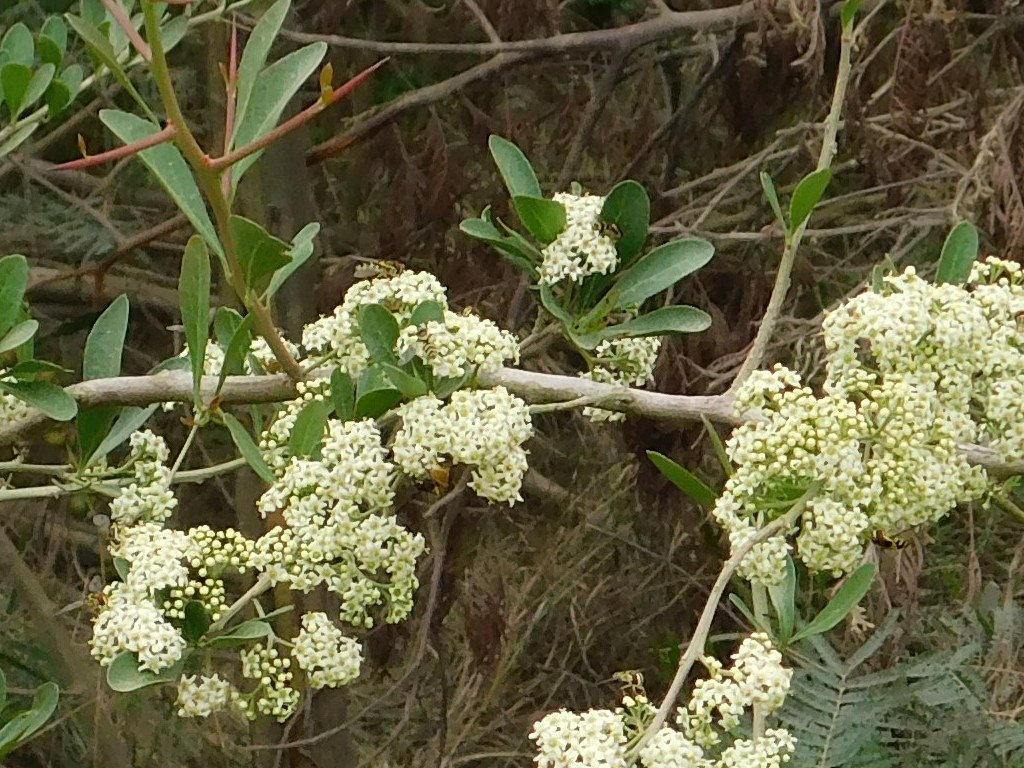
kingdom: Plantae
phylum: Tracheophyta
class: Magnoliopsida
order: Celastrales
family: Celastraceae
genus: Gymnosporia
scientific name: Gymnosporia buxifolia
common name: Common spike-thorn
